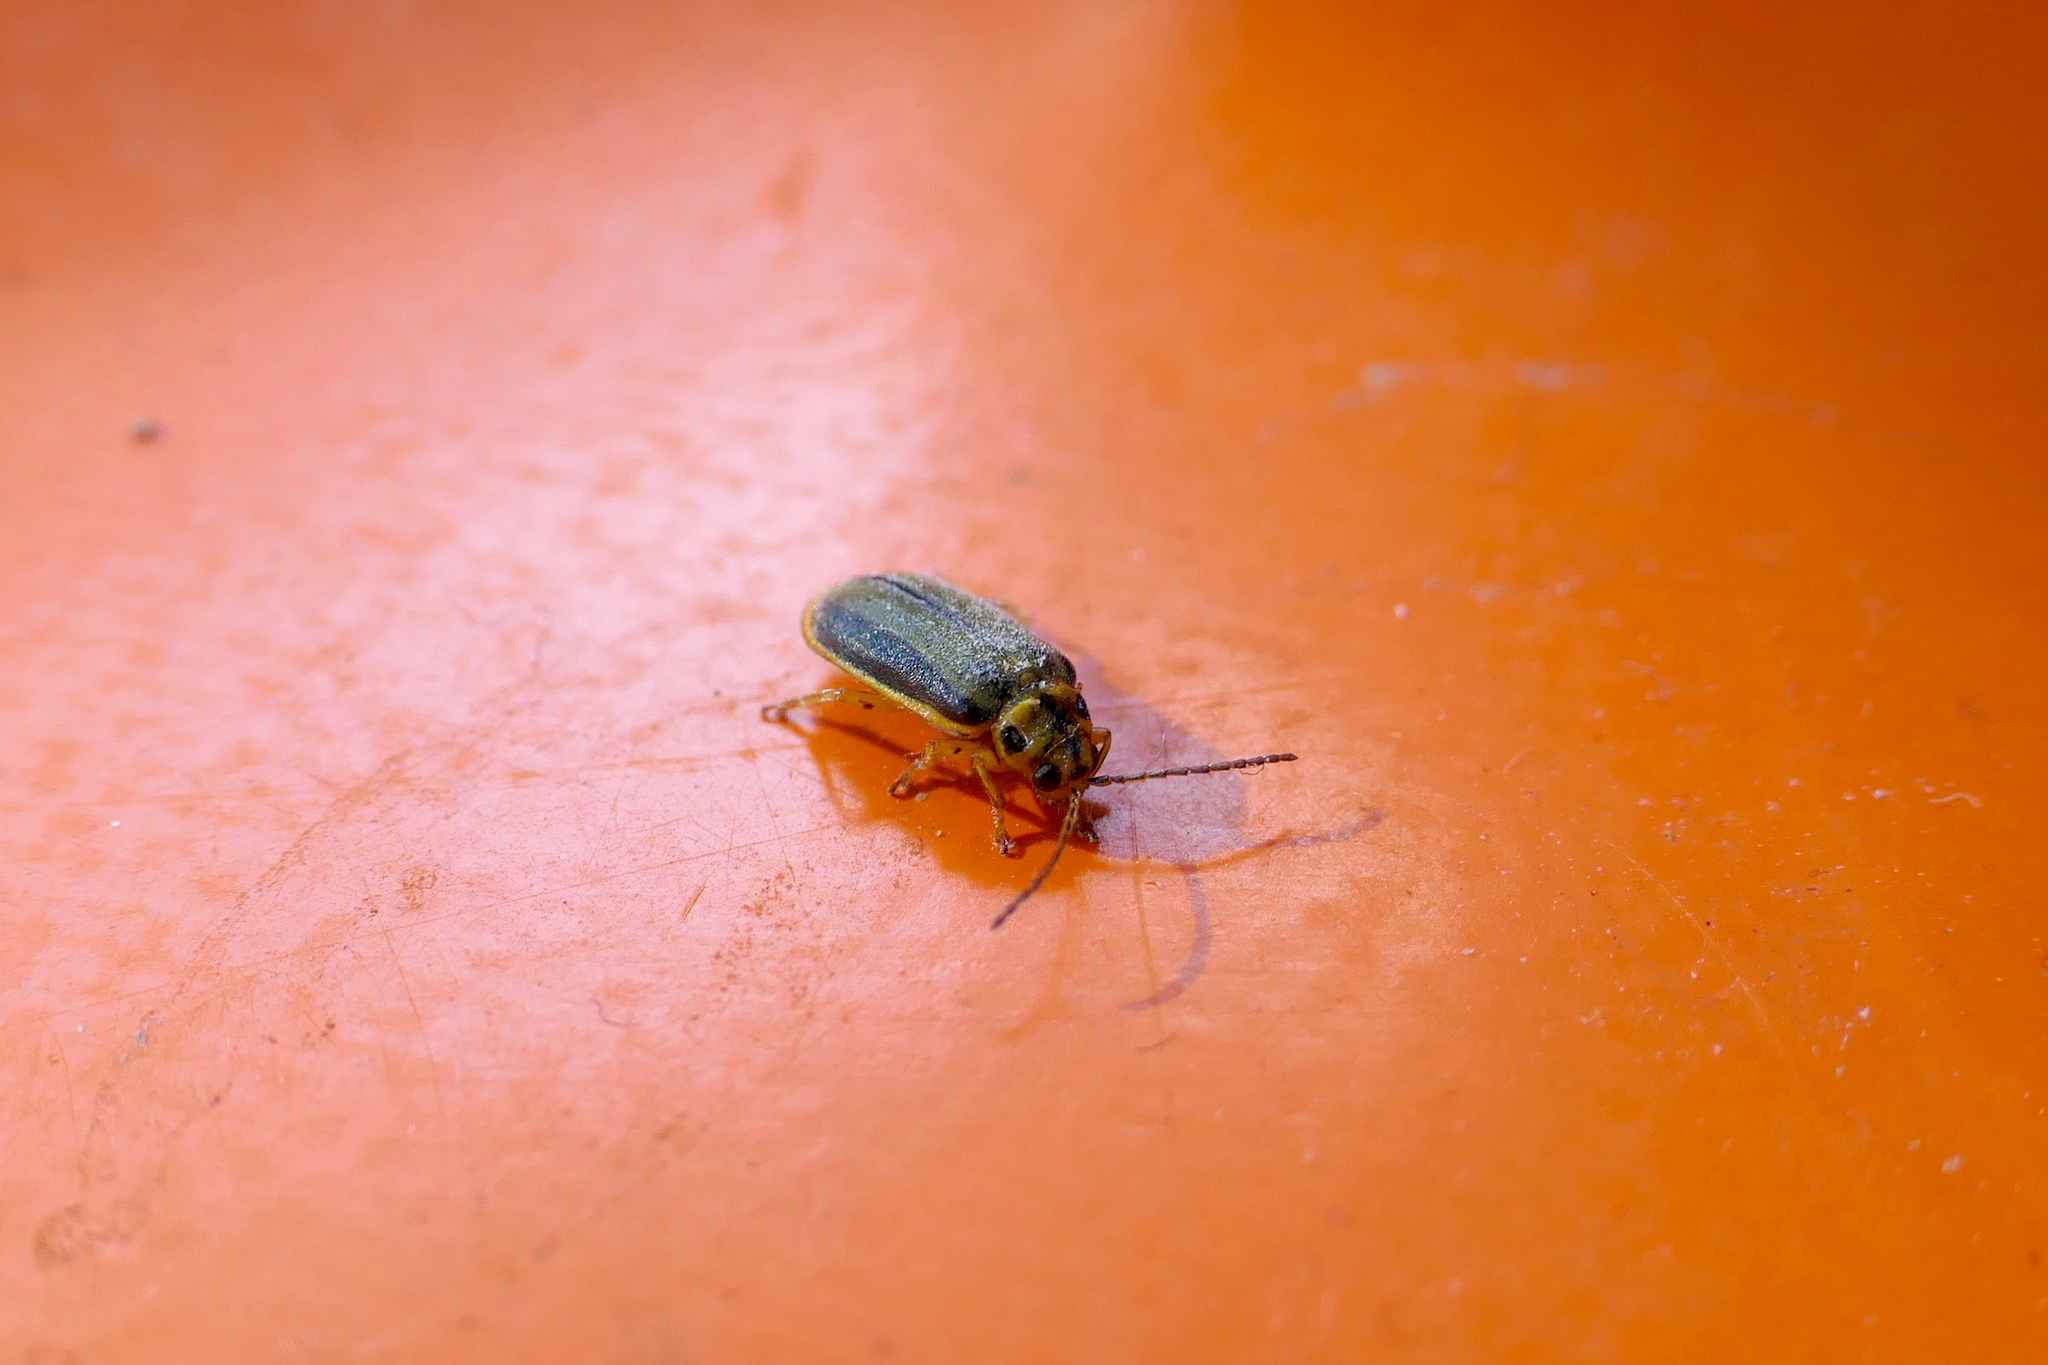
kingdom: Animalia
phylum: Arthropoda
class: Insecta
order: Coleoptera
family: Chrysomelidae
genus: Xanthogaleruca
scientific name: Xanthogaleruca luteola
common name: Elm leaf beetle
